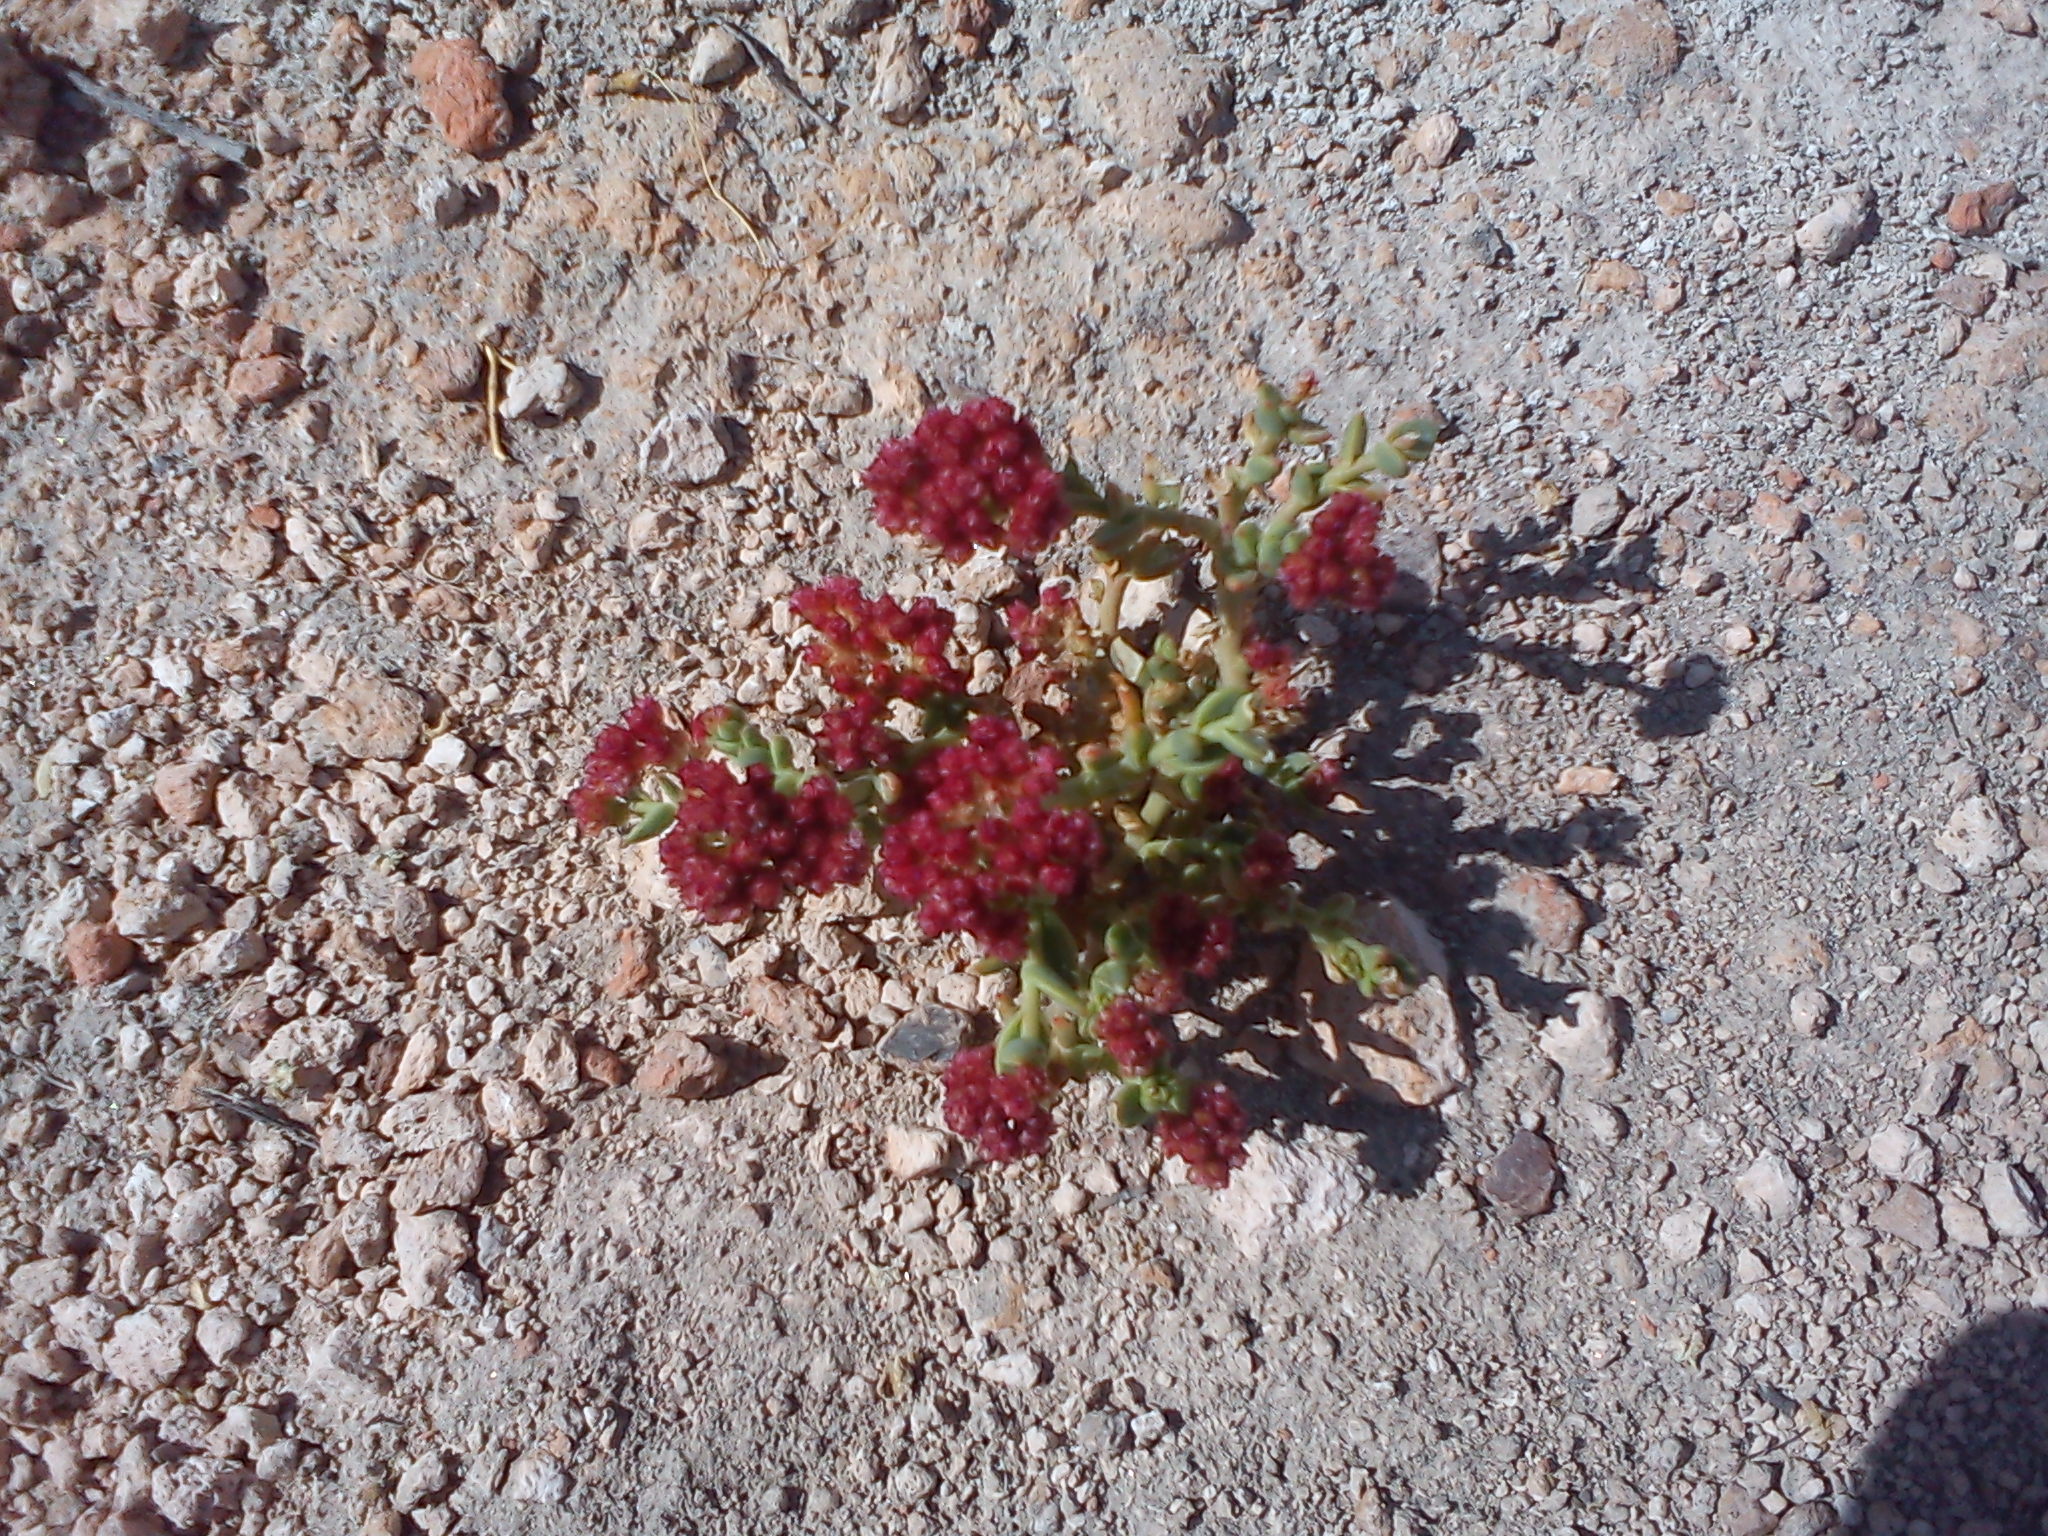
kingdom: Plantae
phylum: Tracheophyta
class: Magnoliopsida
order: Caryophyllales
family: Montiaceae
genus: Philippiamra
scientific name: Philippiamra celosioides
